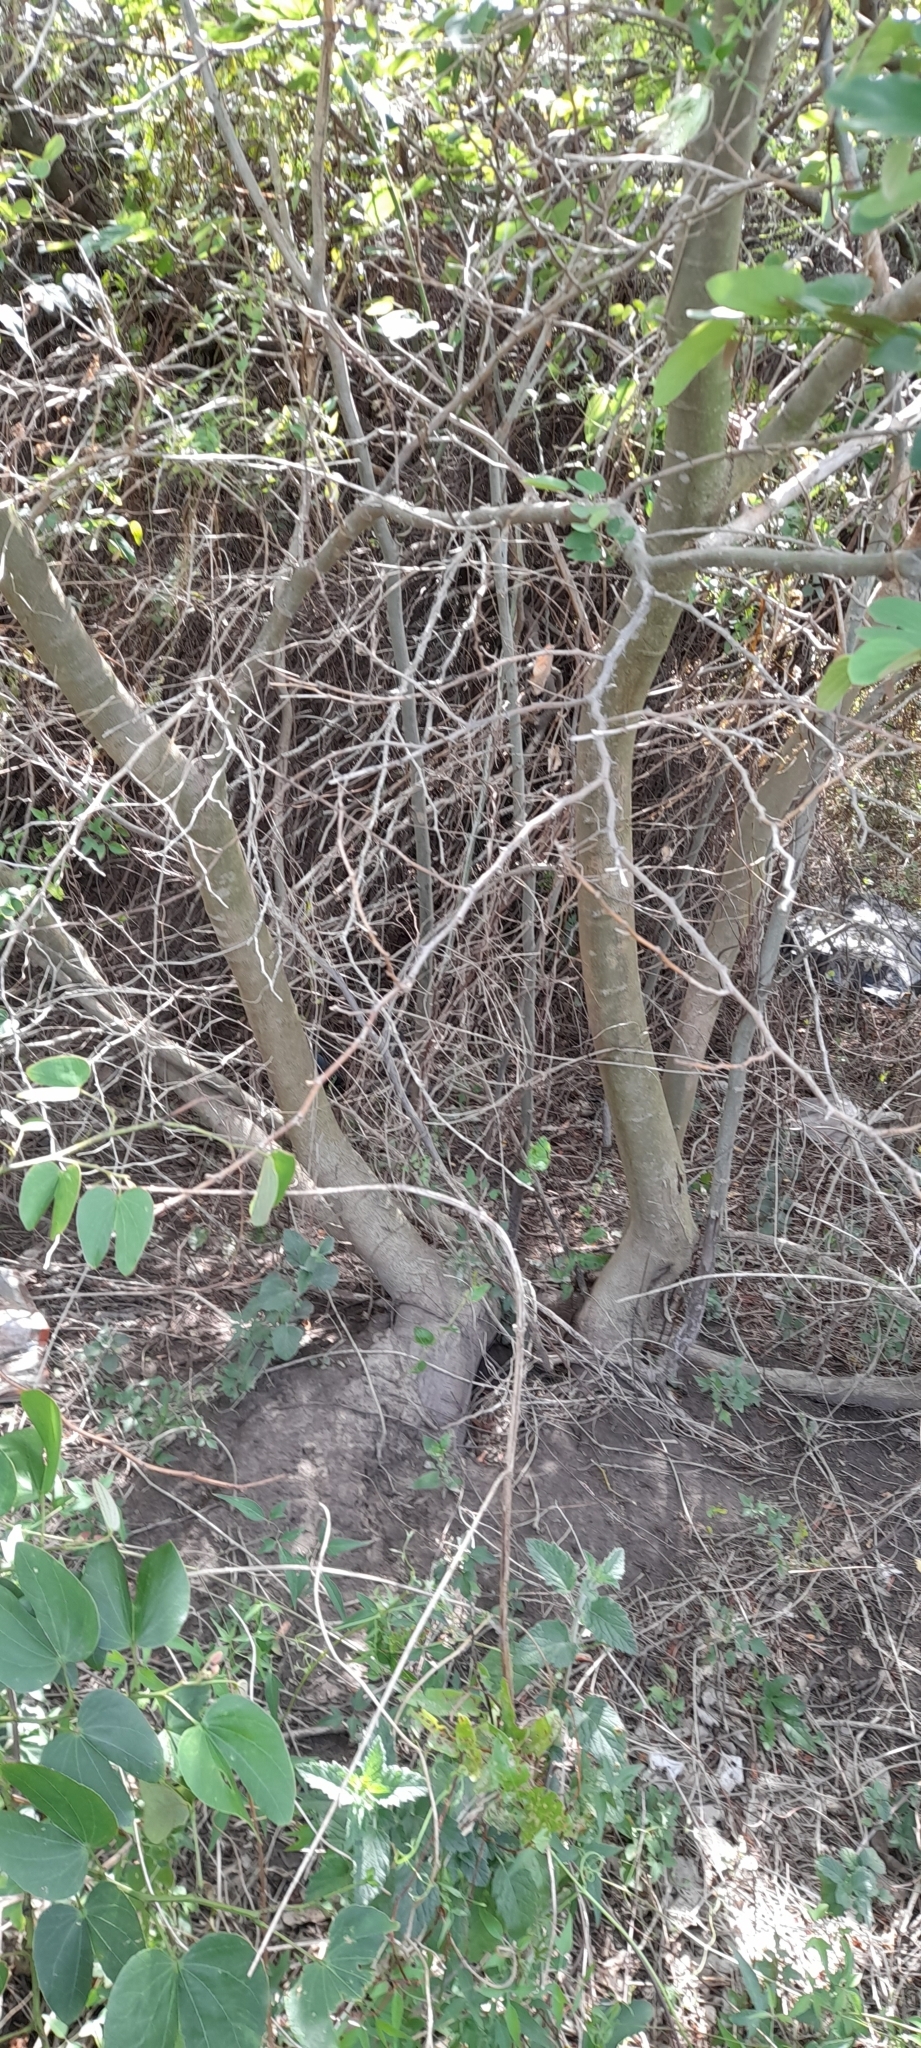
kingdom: Plantae
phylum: Tracheophyta
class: Magnoliopsida
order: Fabales
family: Fabaceae
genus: Bauhinia
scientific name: Bauhinia forficata
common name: Orchid tree
